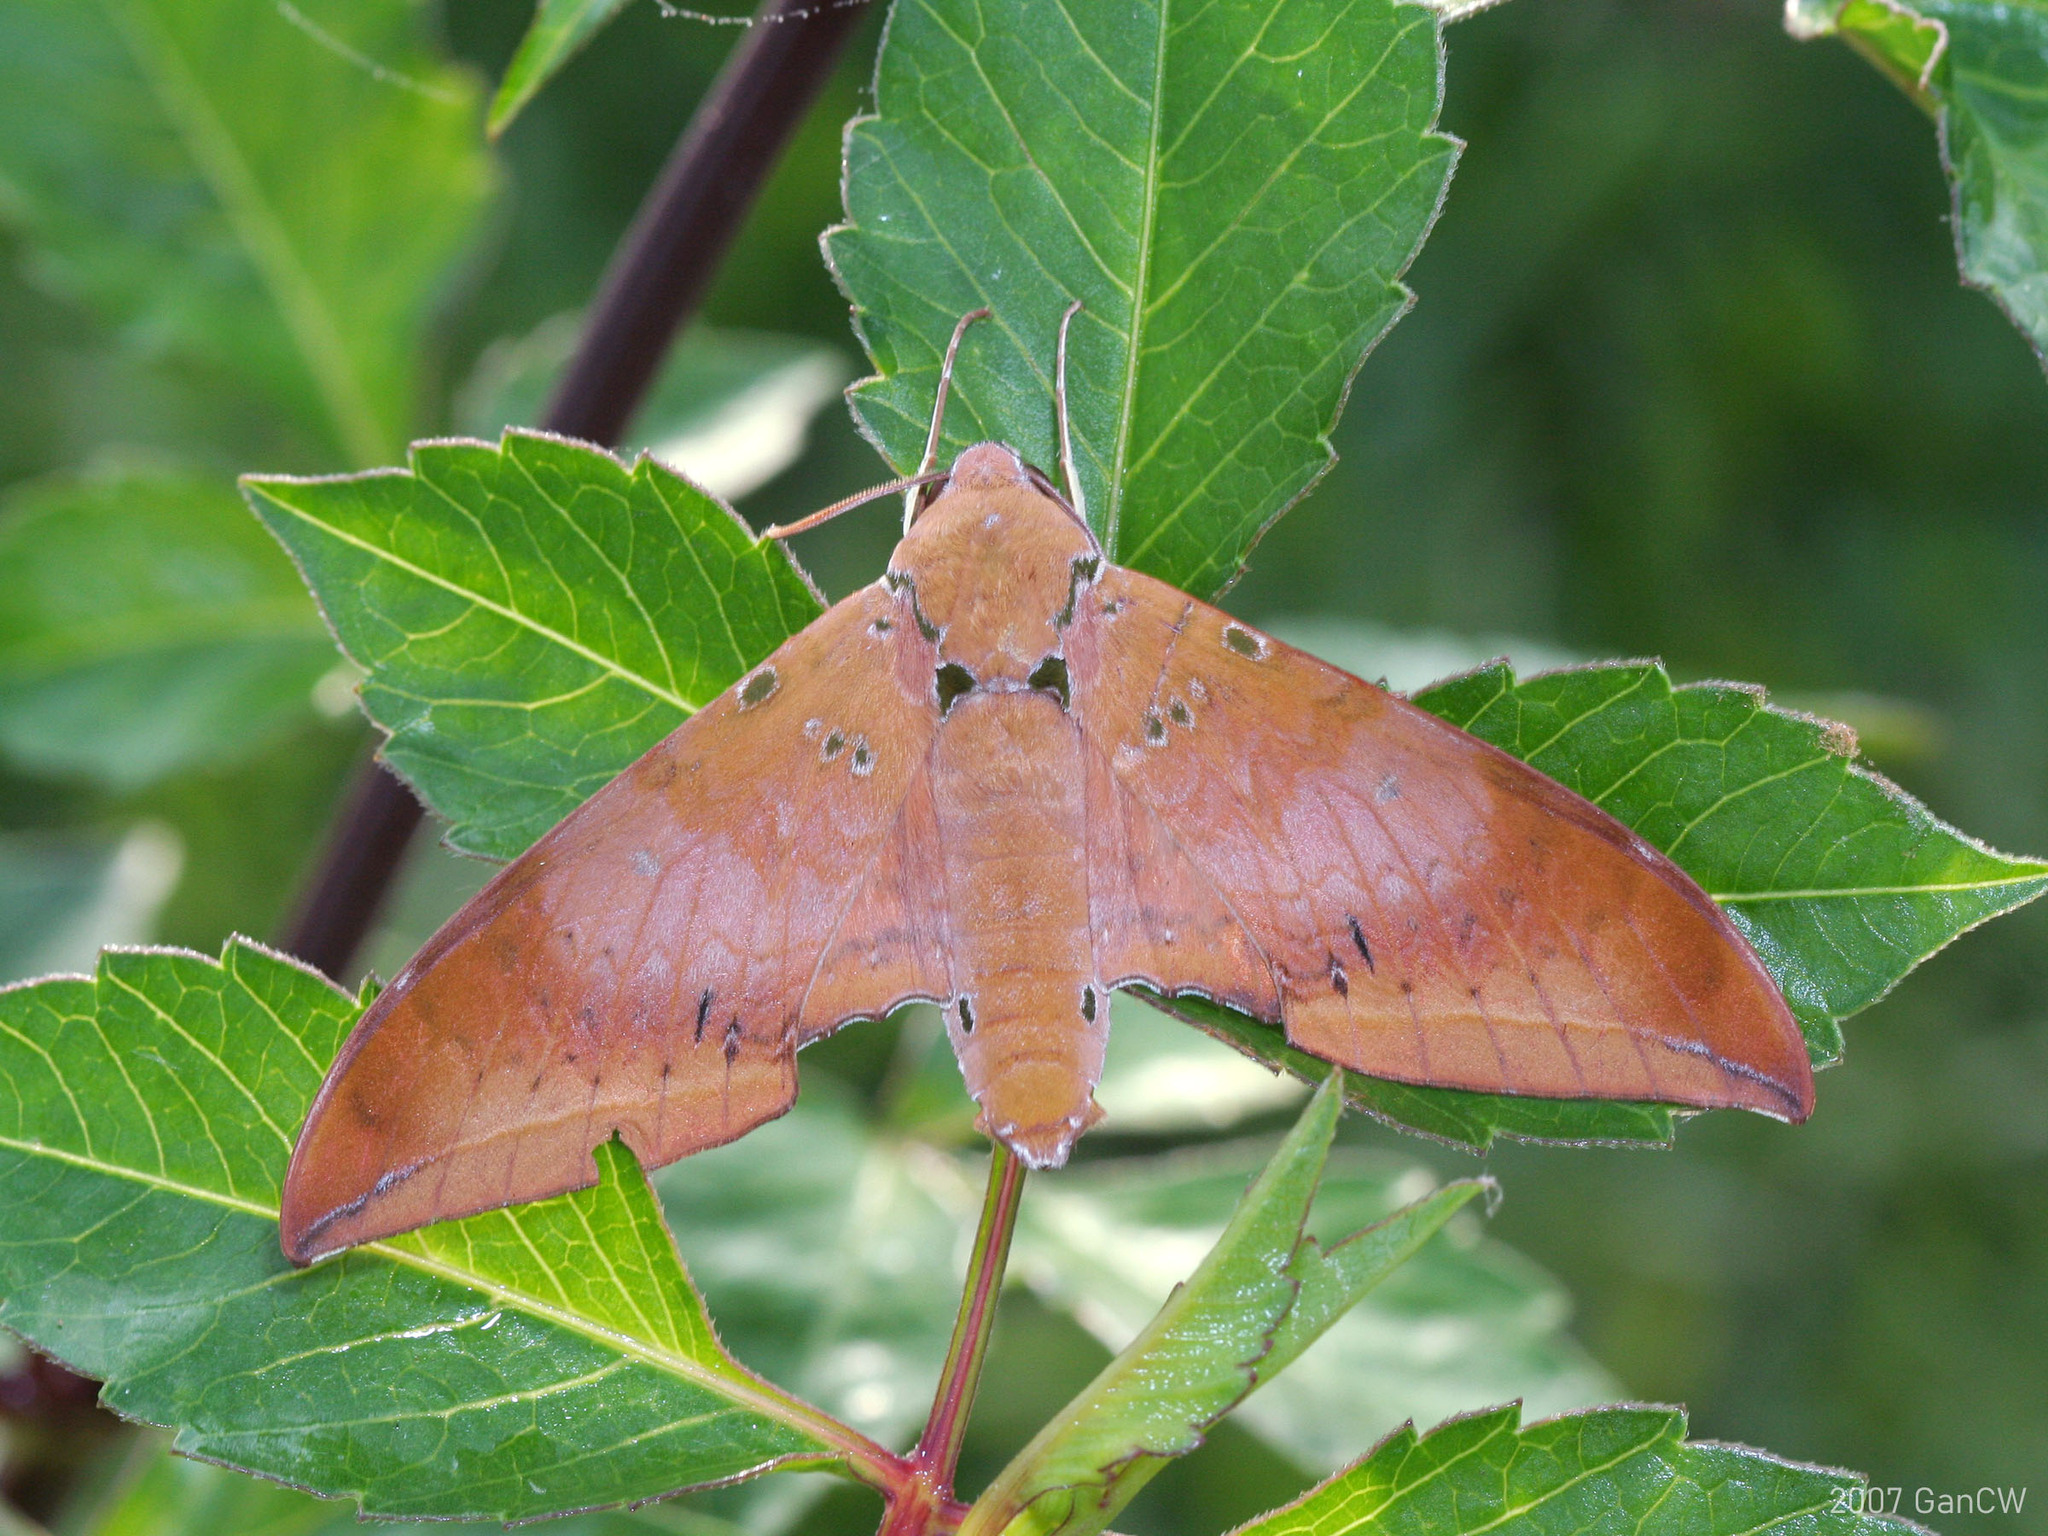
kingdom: Animalia
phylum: Arthropoda
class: Insecta
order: Lepidoptera
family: Sphingidae
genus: Ambulyx
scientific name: Ambulyx moorei
